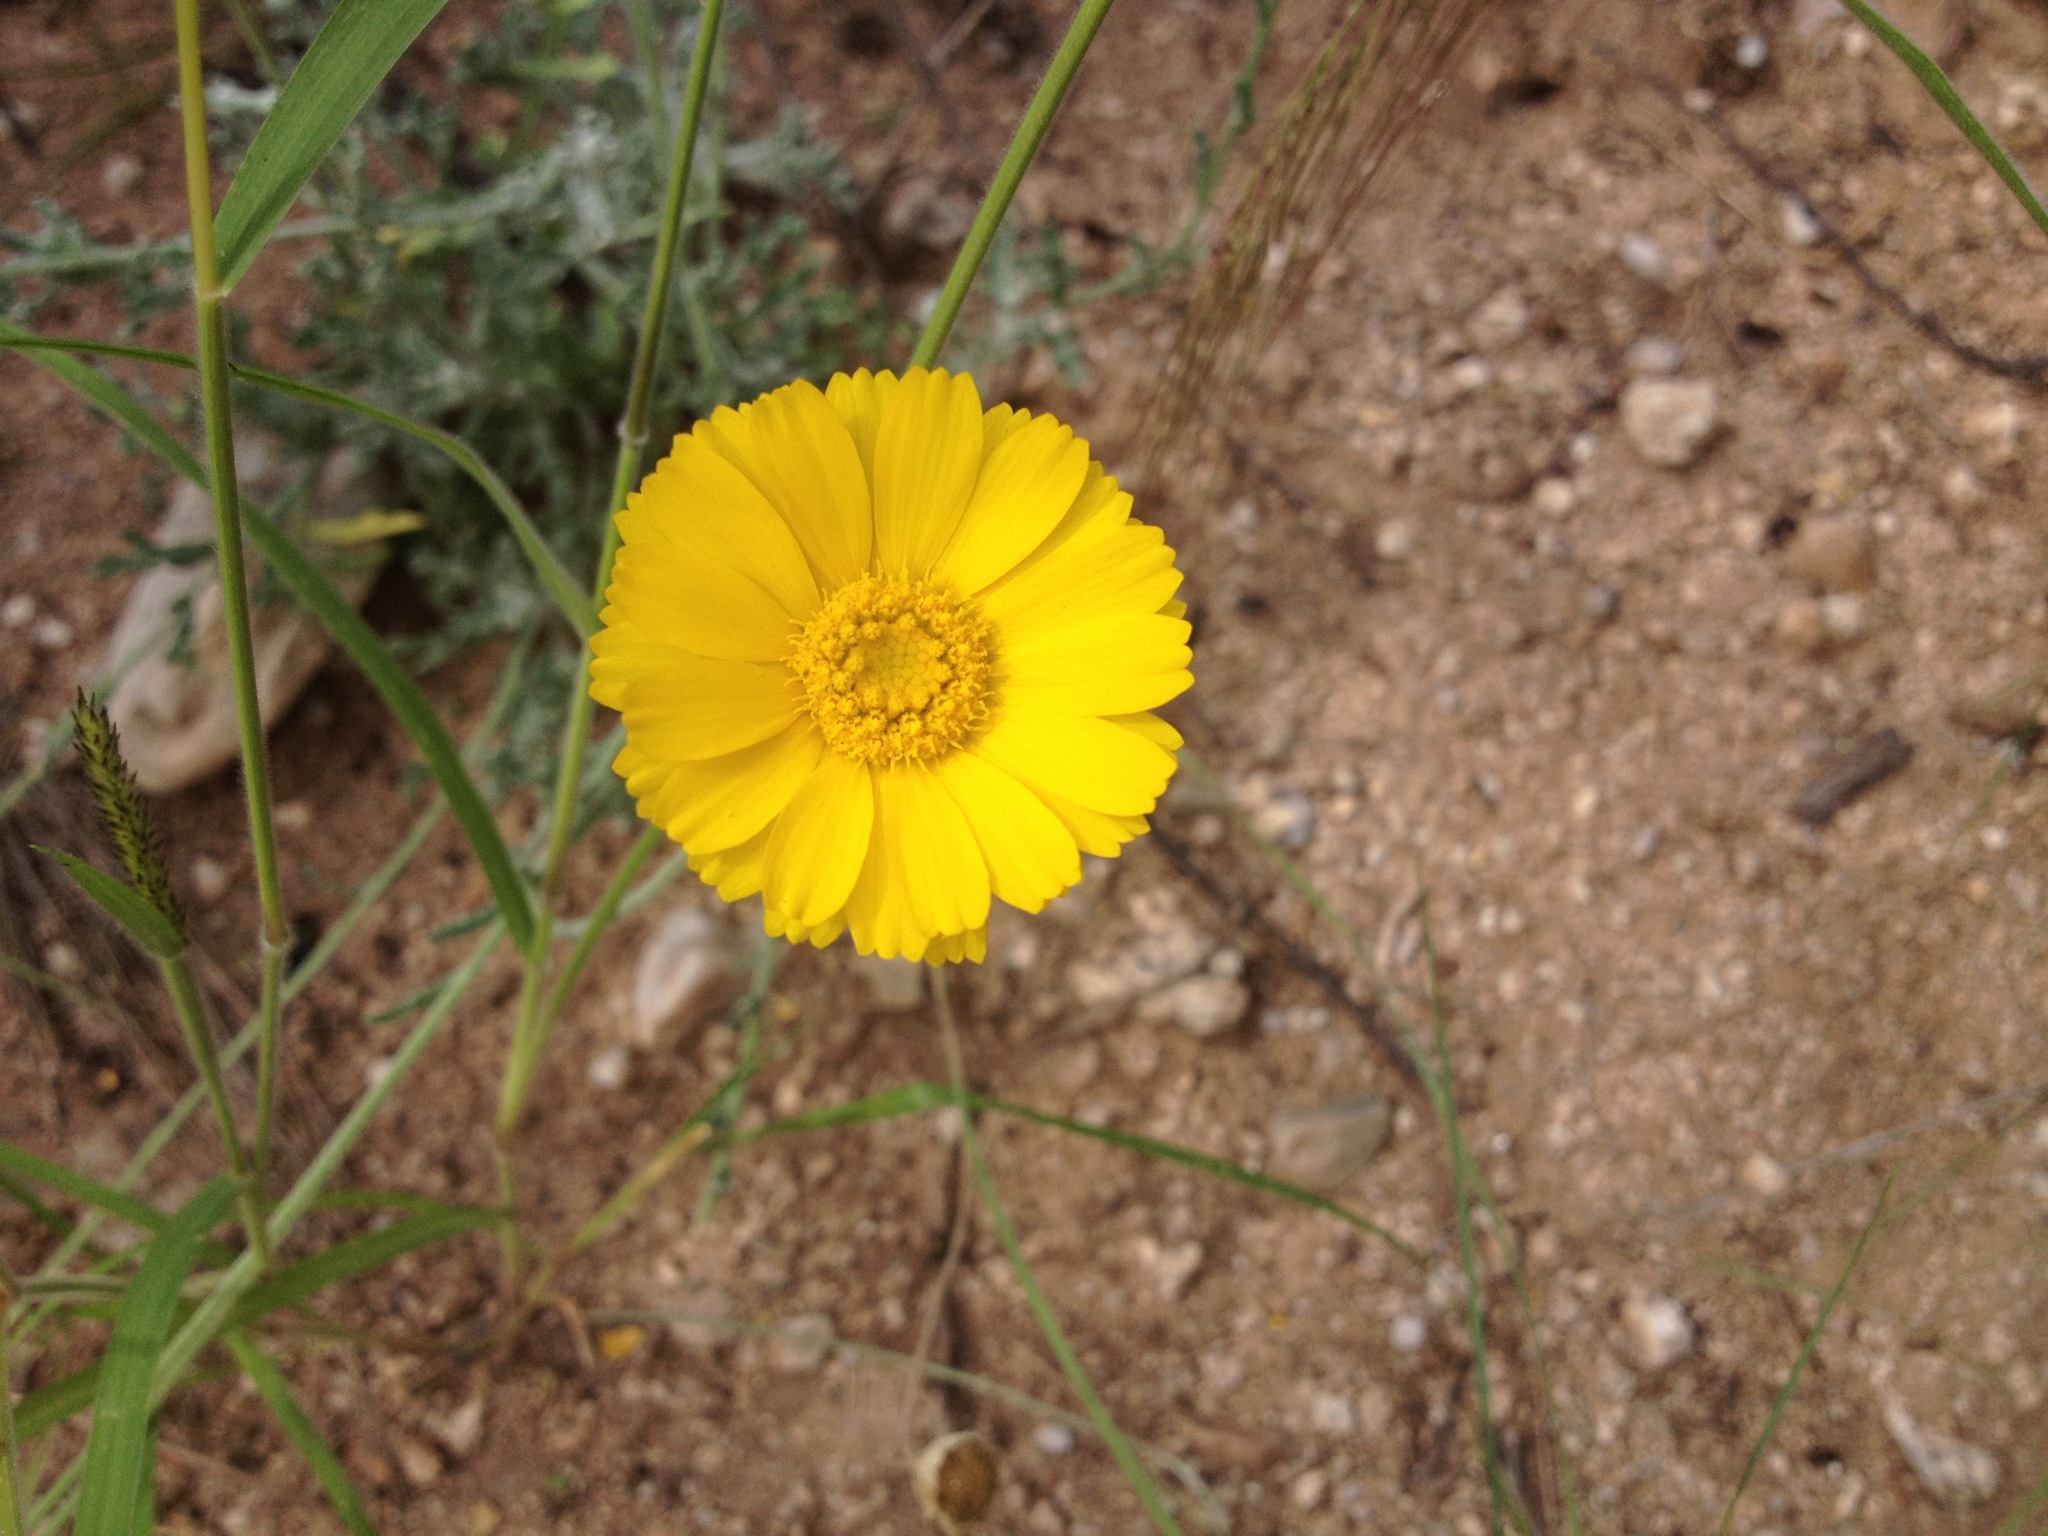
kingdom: Plantae
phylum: Tracheophyta
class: Magnoliopsida
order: Asterales
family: Asteraceae
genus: Baileya
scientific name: Baileya multiradiata
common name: Desert-marigold
